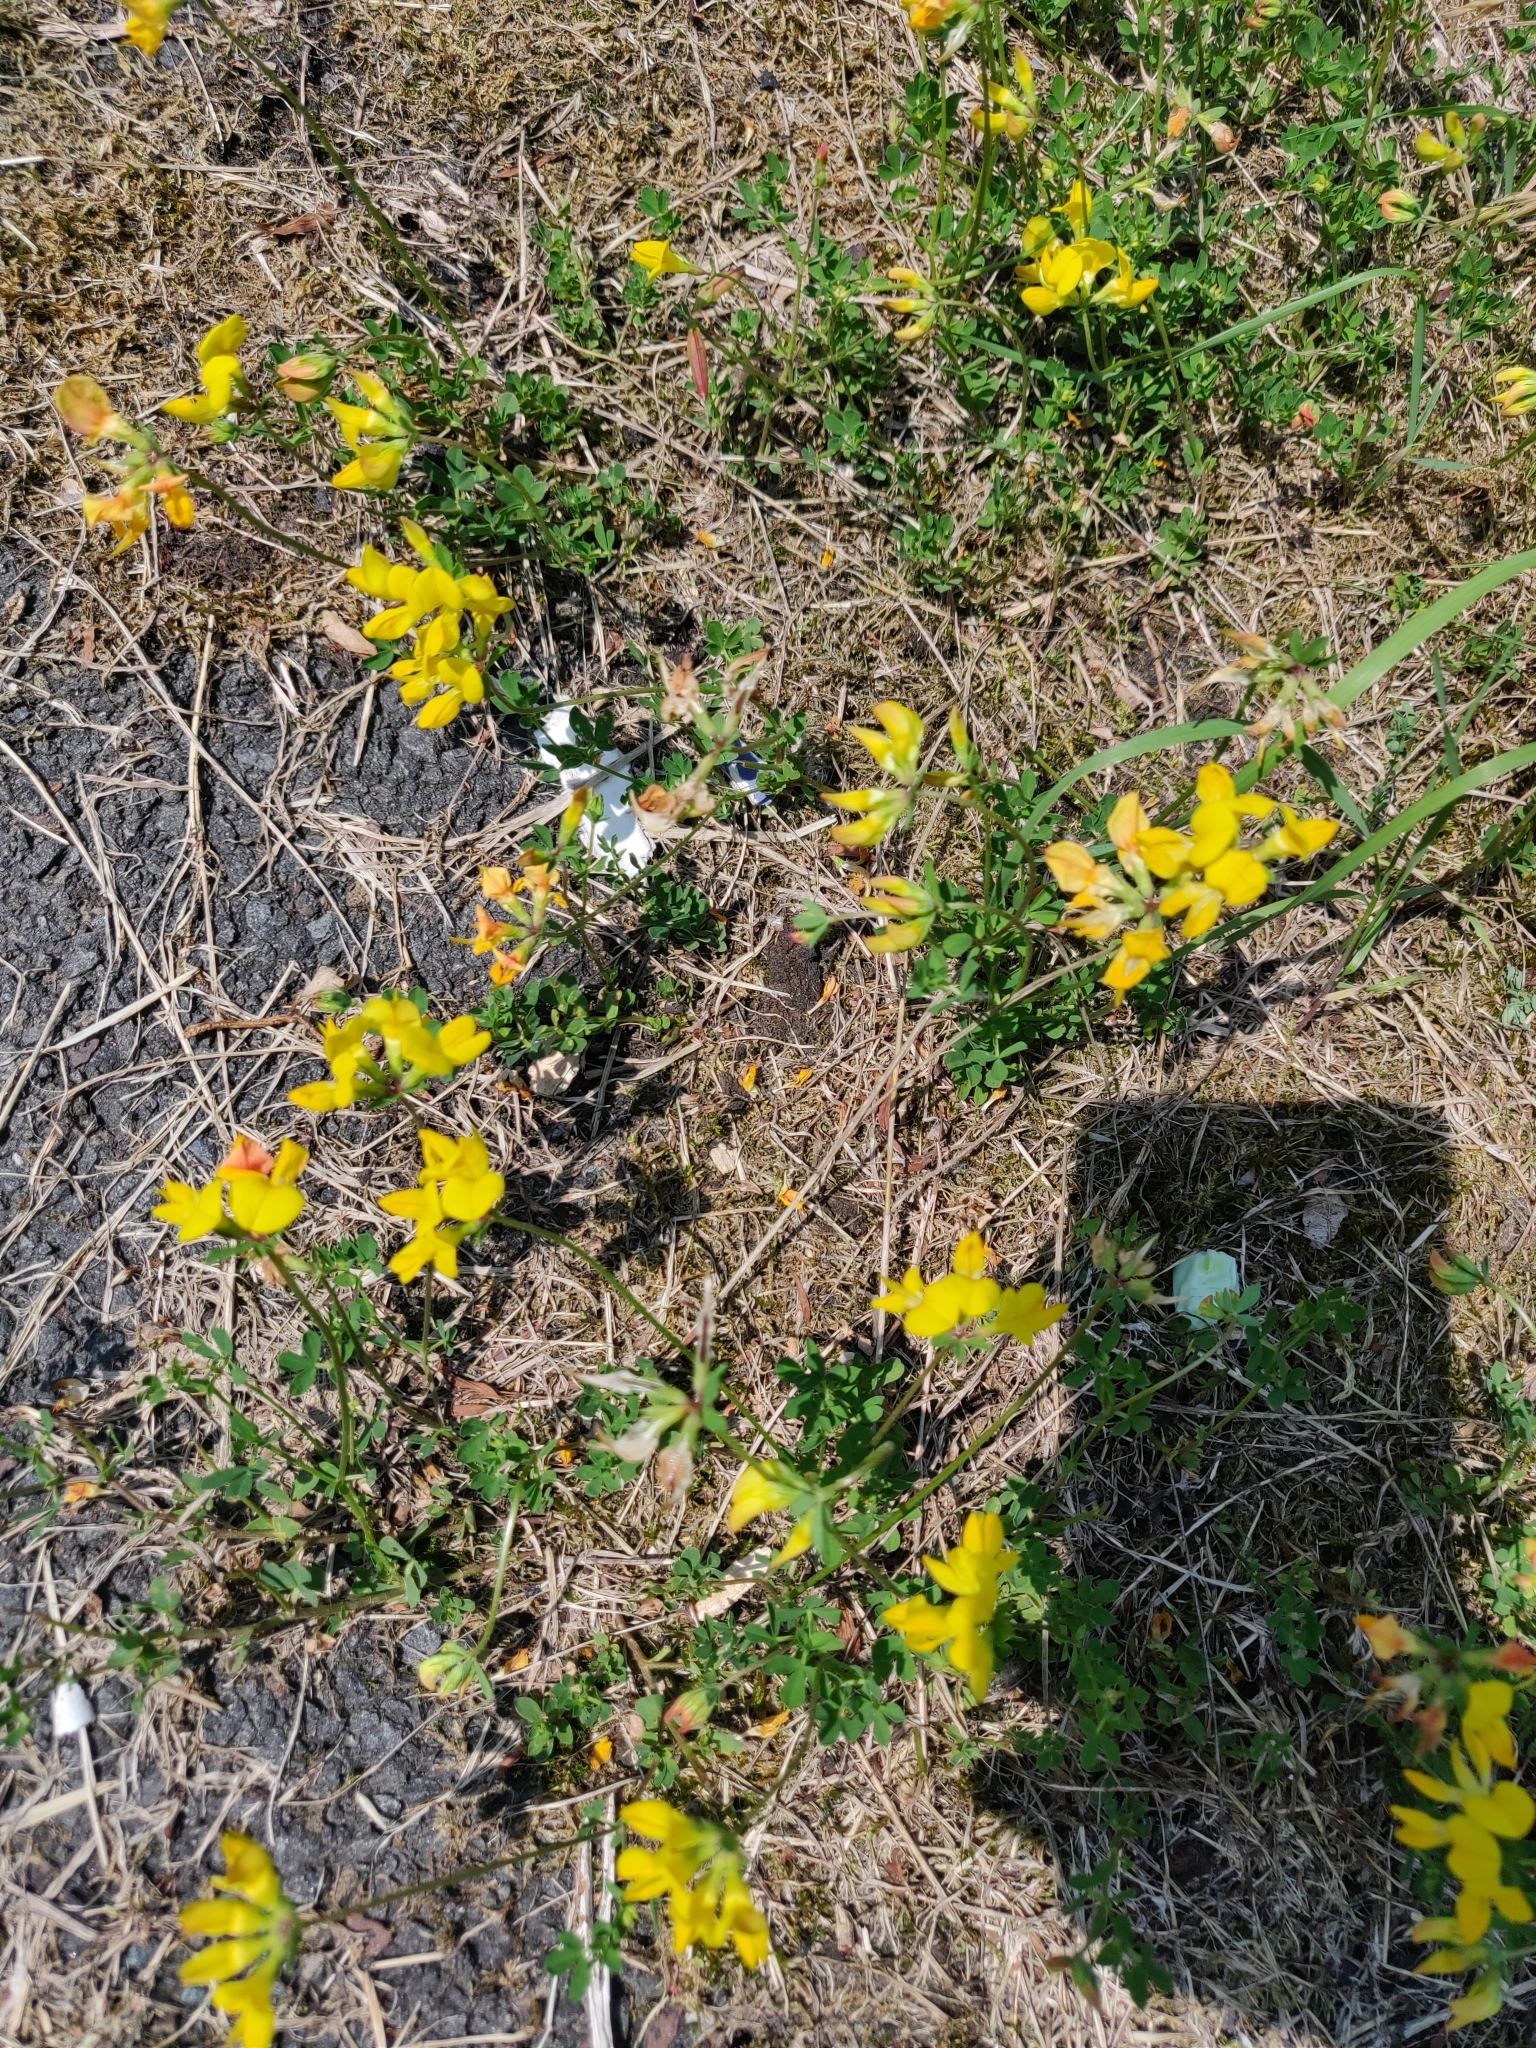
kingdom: Plantae
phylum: Tracheophyta
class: Magnoliopsida
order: Fabales
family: Fabaceae
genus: Lotus
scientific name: Lotus corniculatus
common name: Common bird's-foot-trefoil
